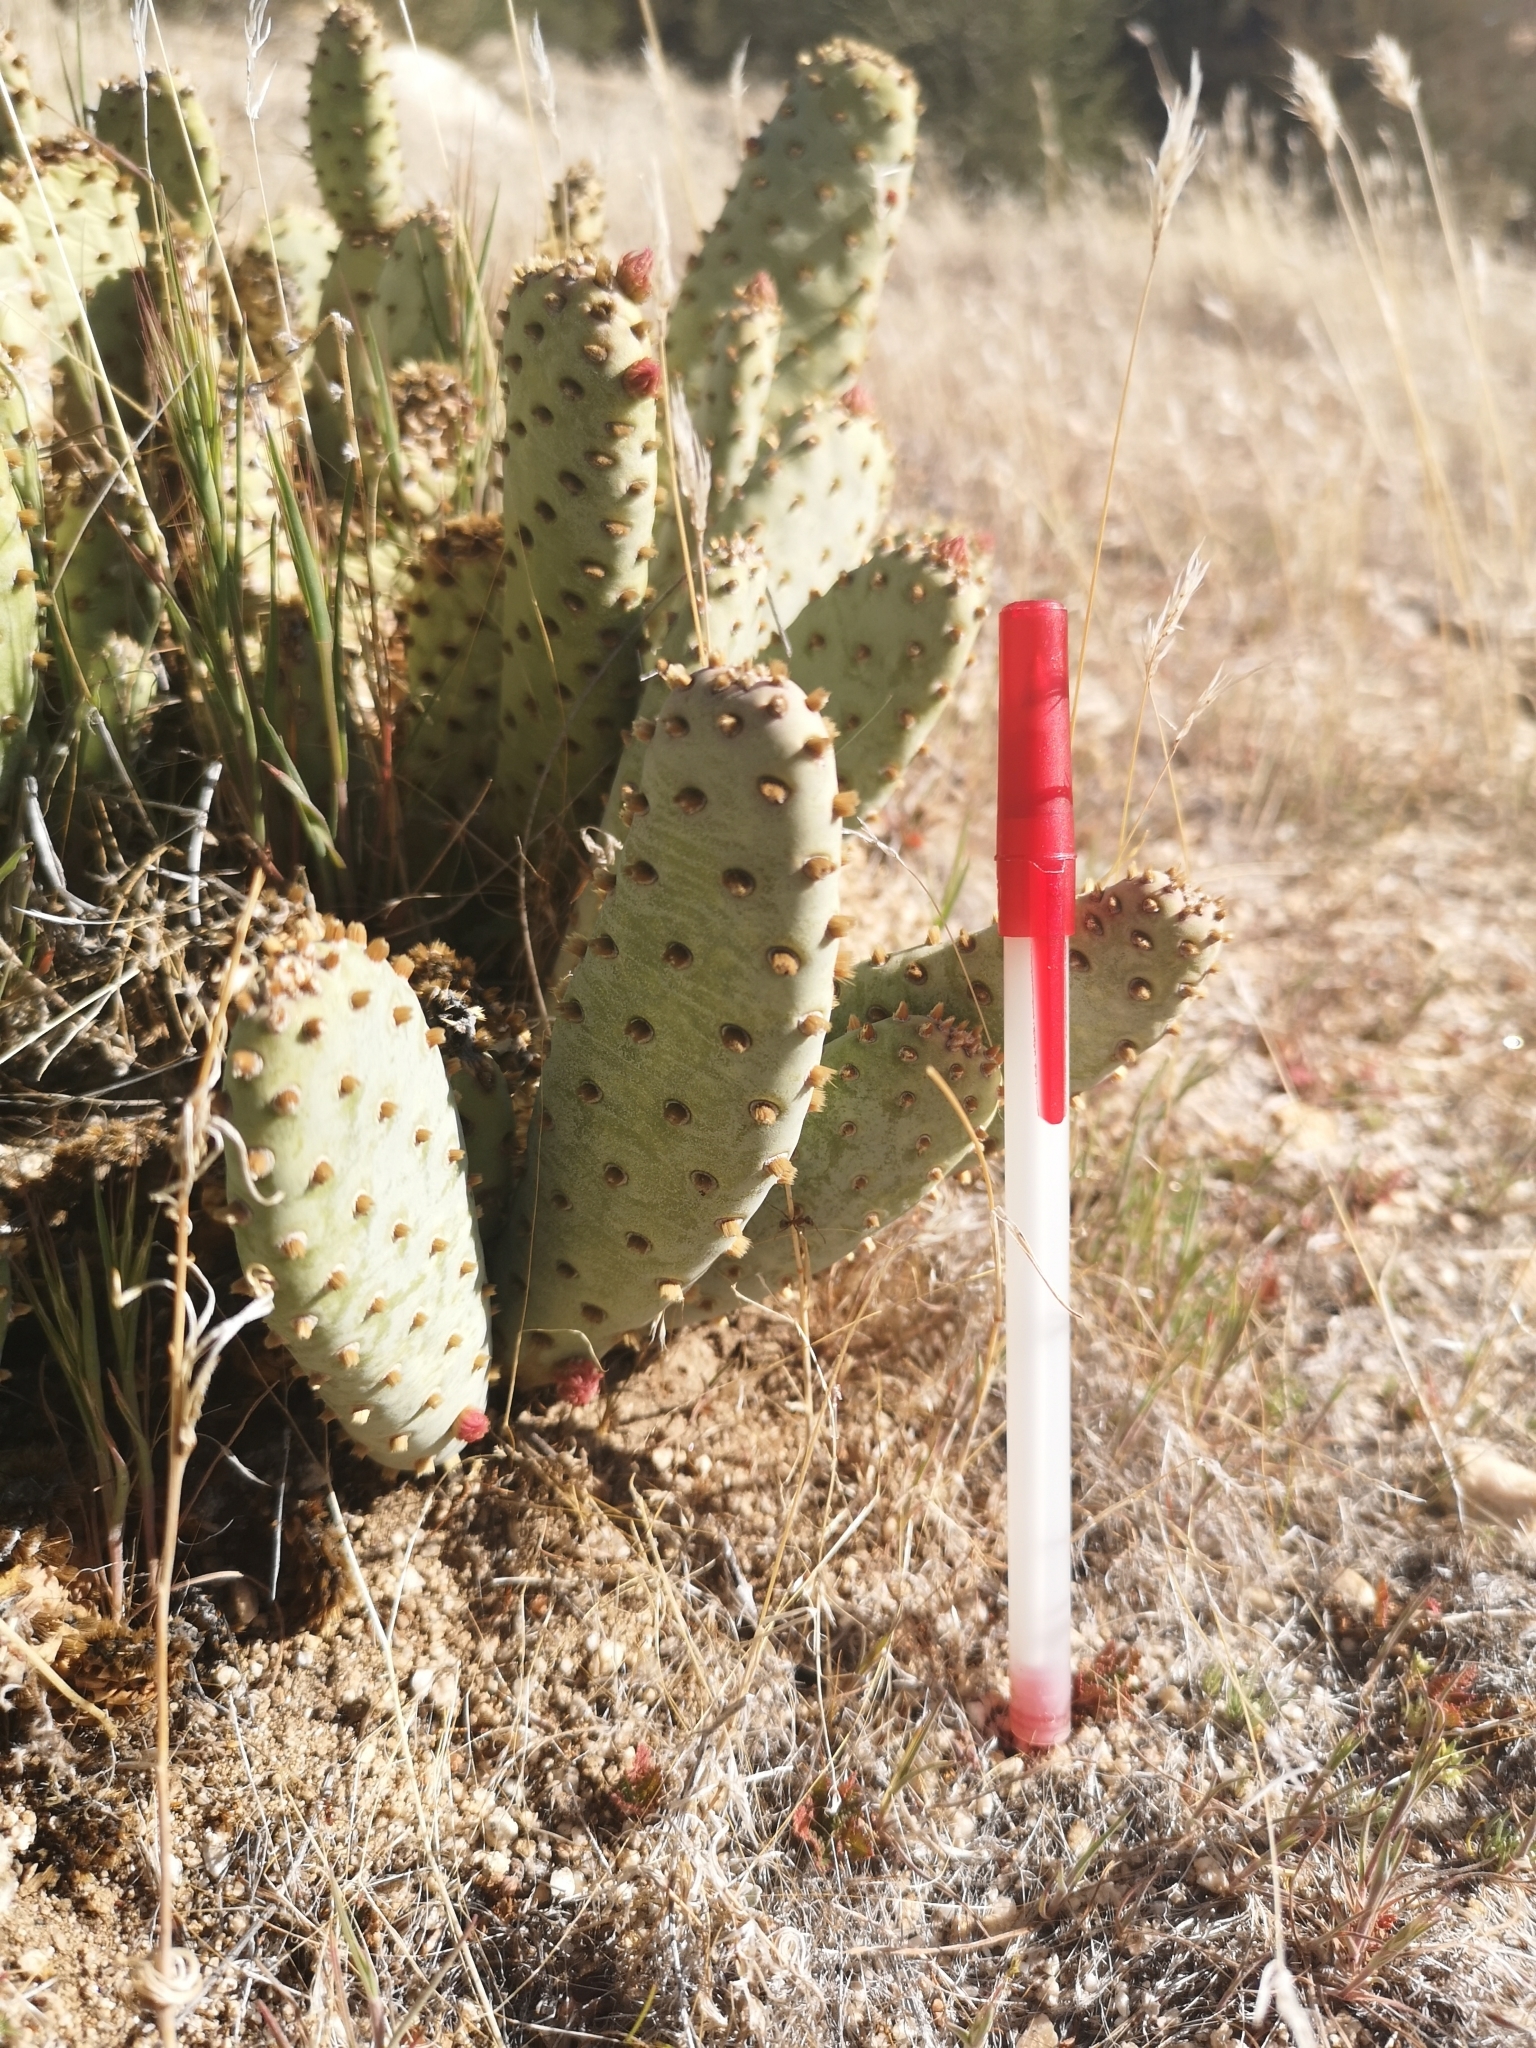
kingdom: Plantae
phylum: Tracheophyta
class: Magnoliopsida
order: Caryophyllales
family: Cactaceae
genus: Opuntia
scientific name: Opuntia basilaris
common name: Beavertail prickly-pear
